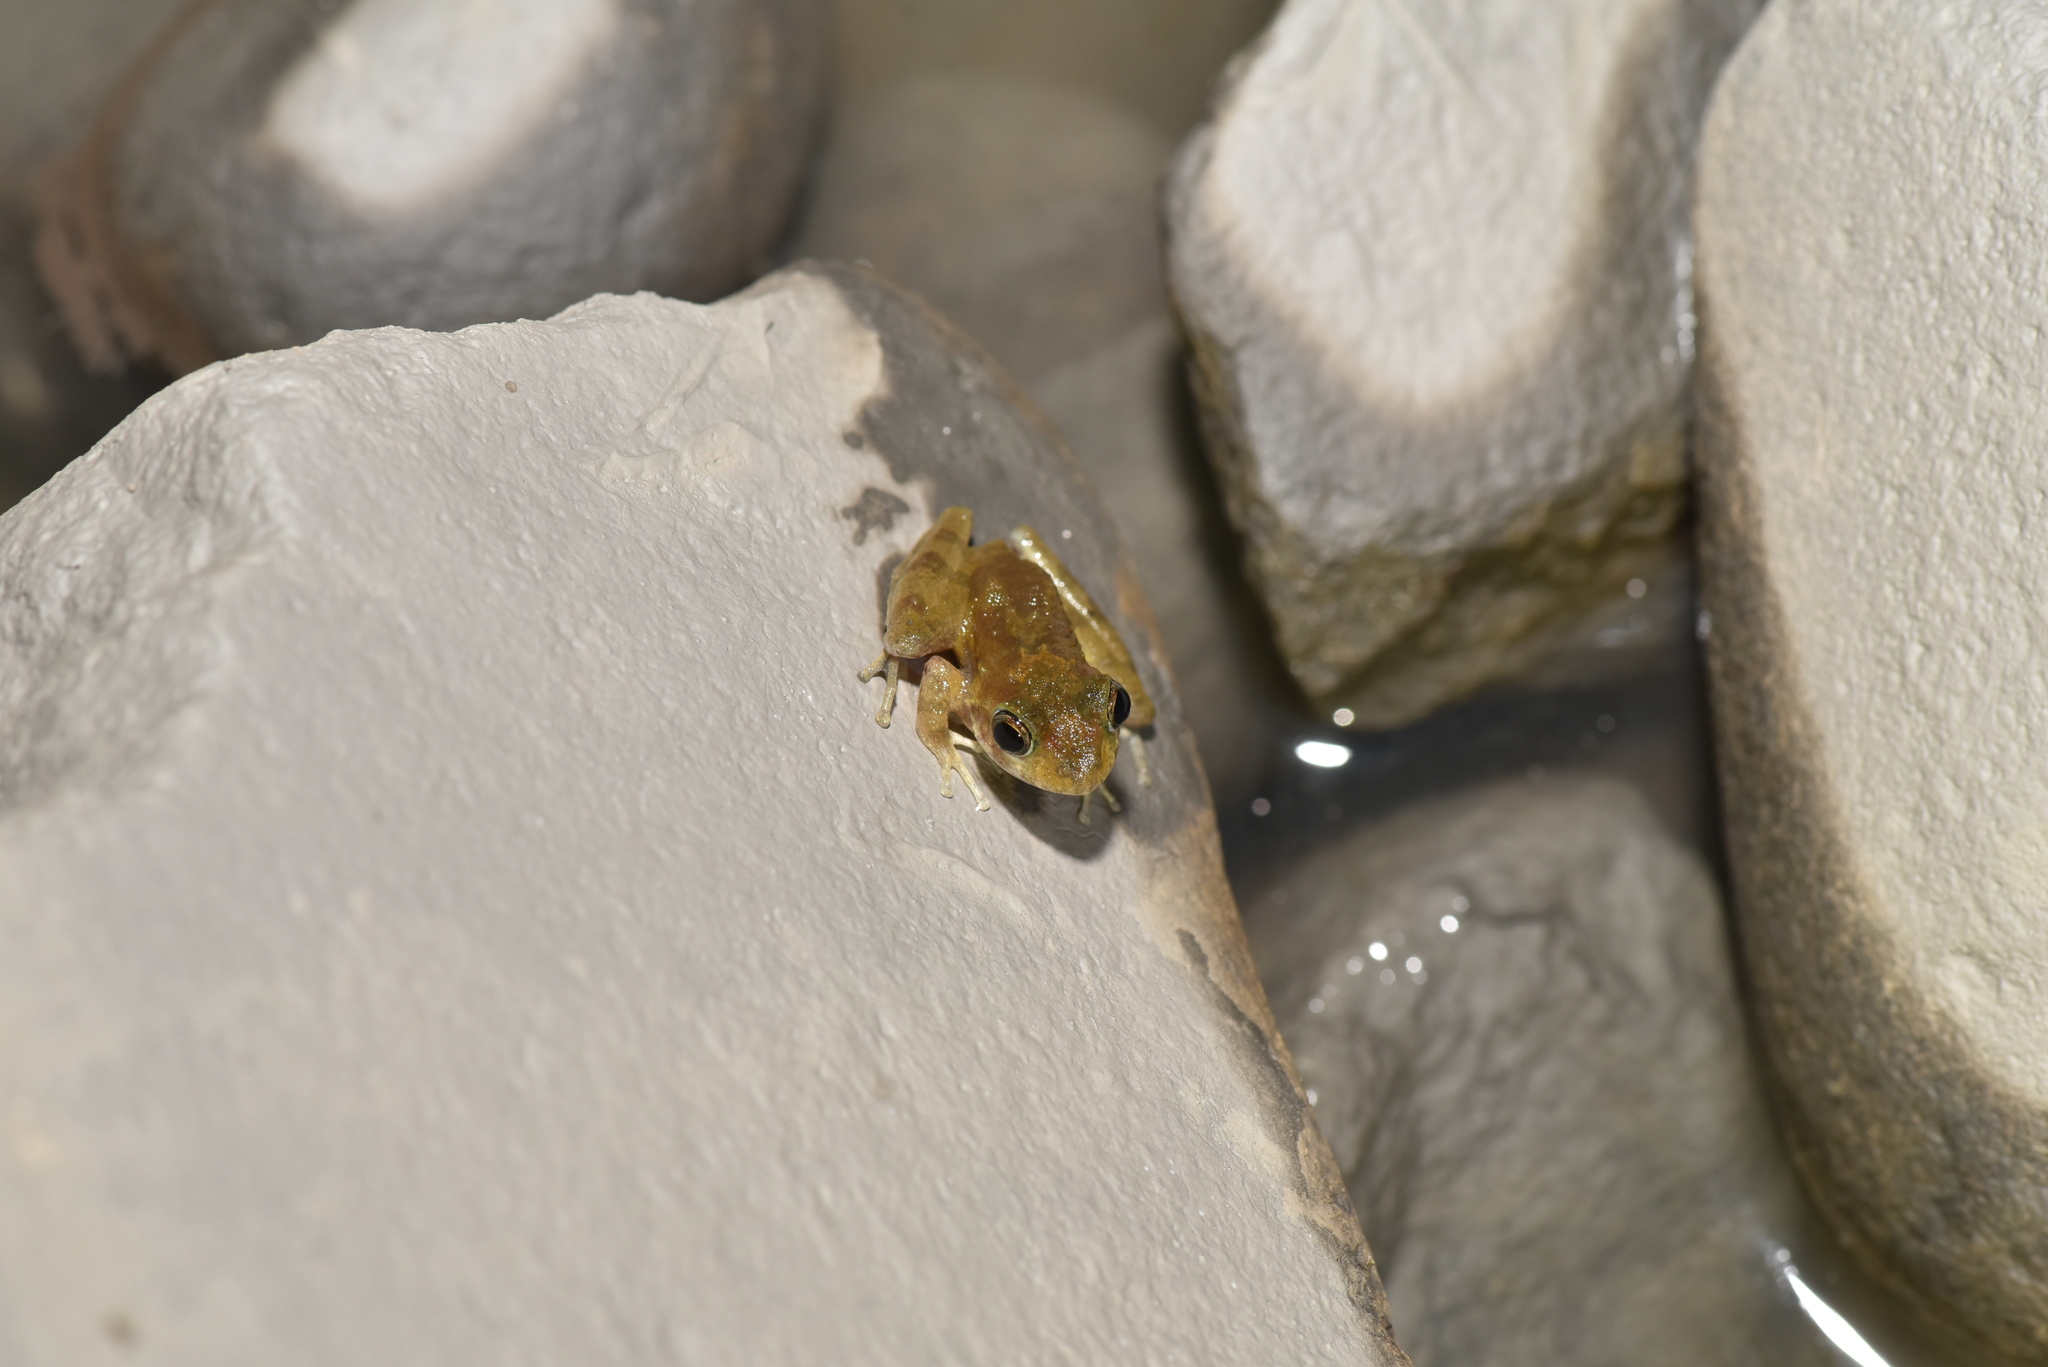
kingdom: Animalia
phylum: Chordata
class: Amphibia
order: Anura
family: Rhacophoridae
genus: Buergeria
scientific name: Buergeria choui
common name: Yaeyama kajika frog
